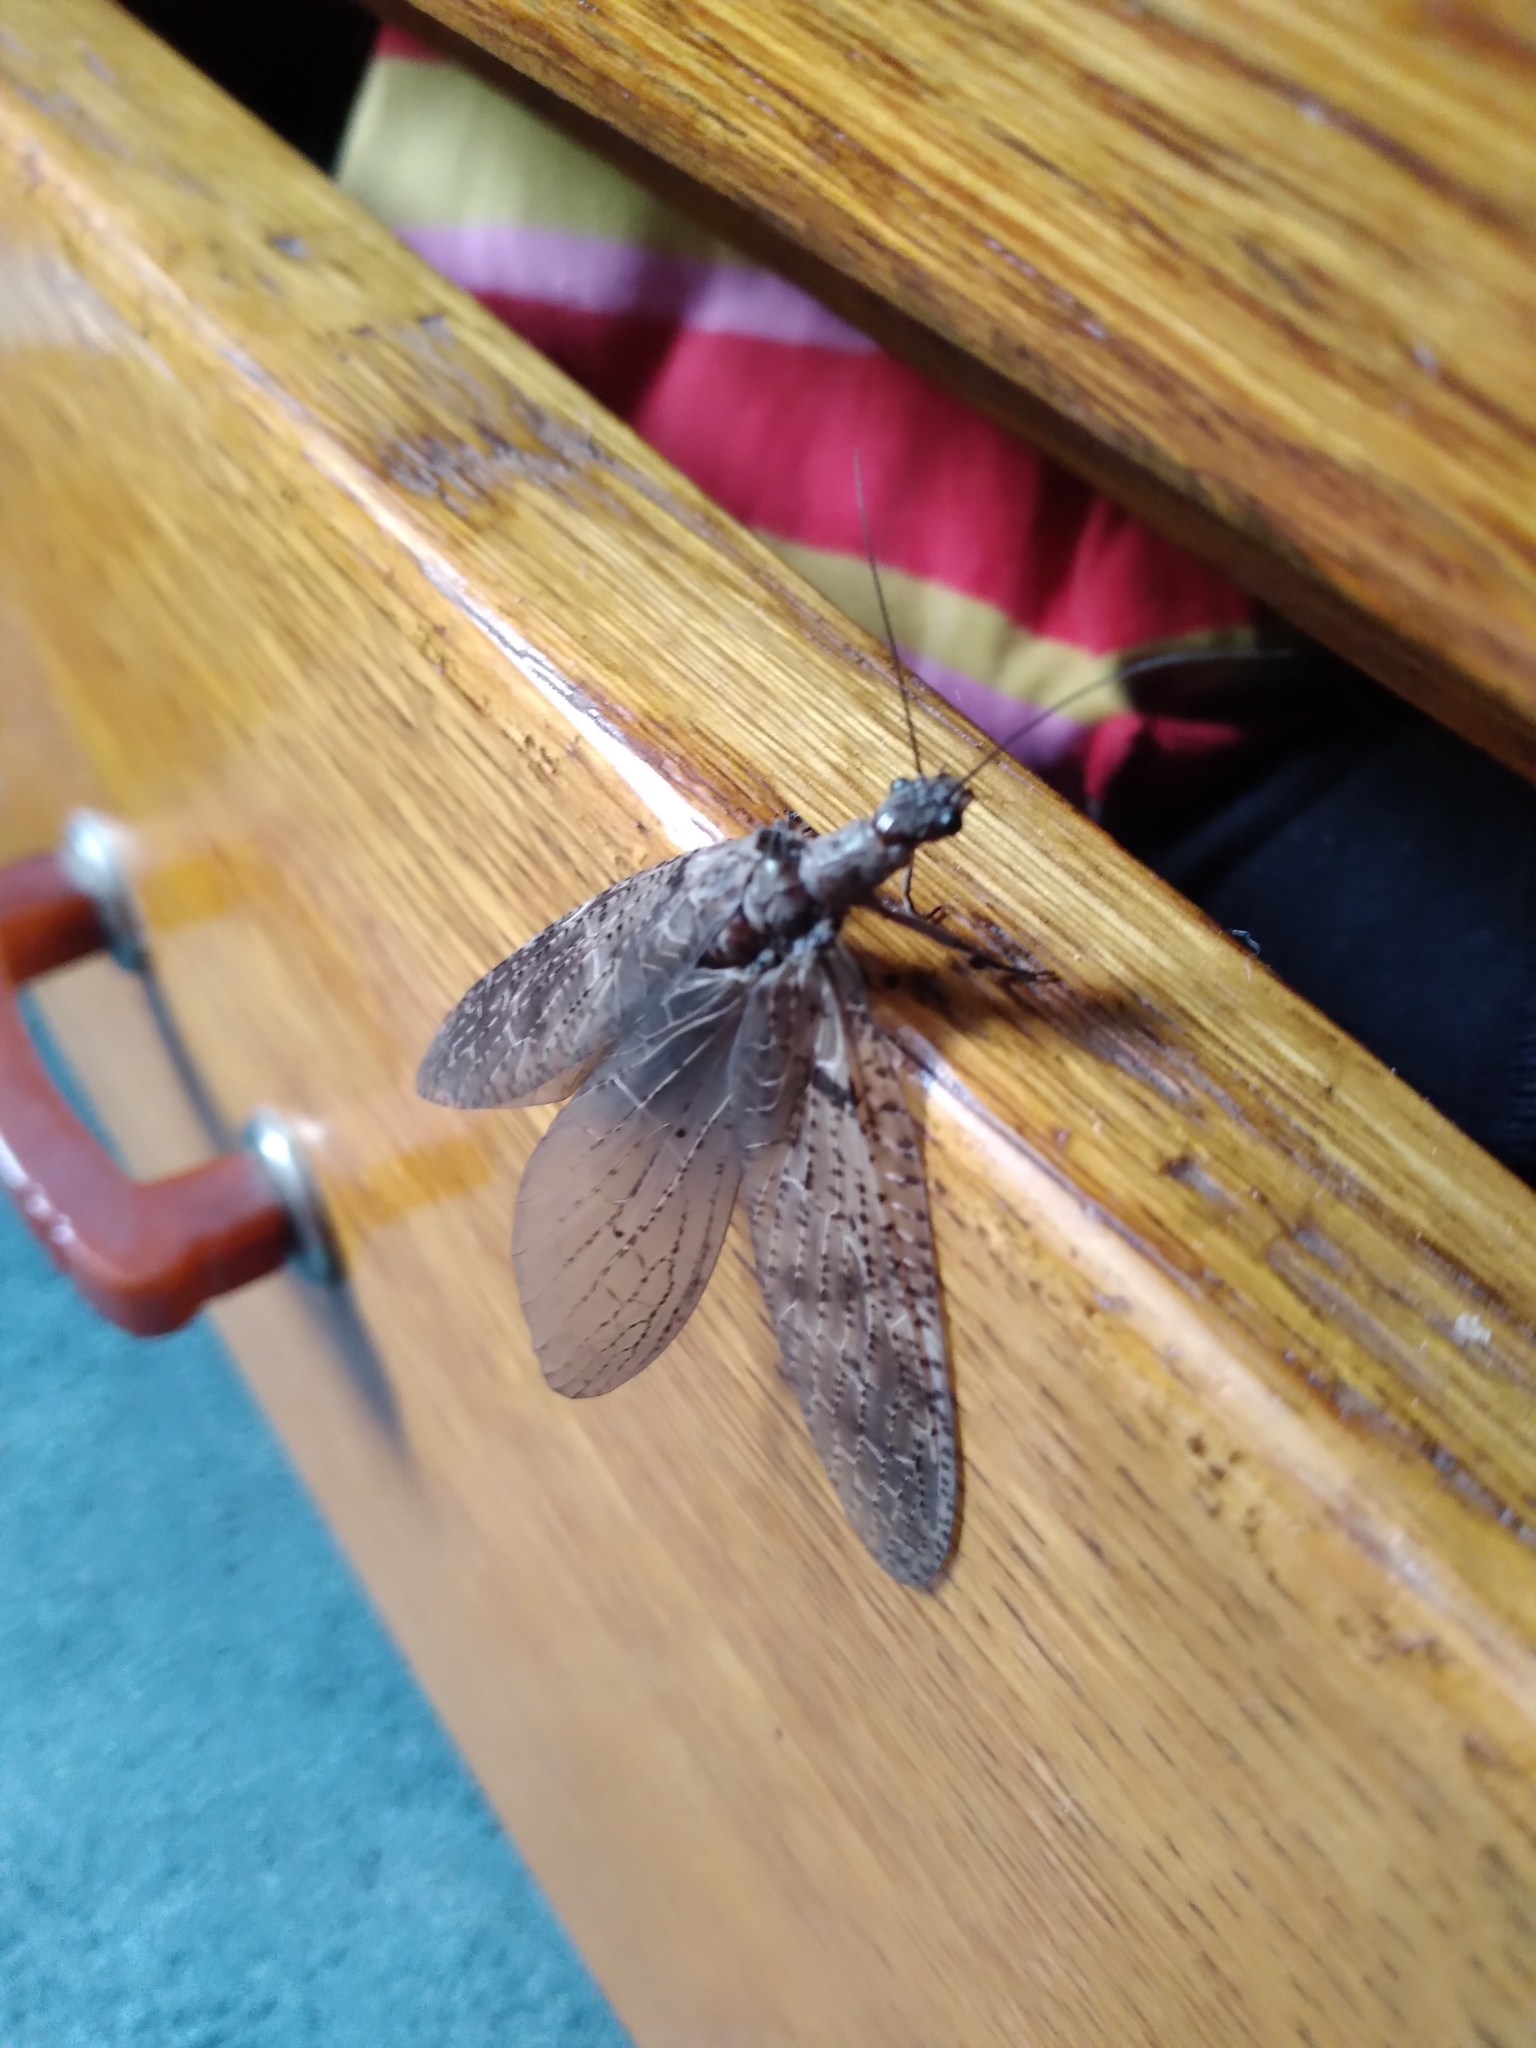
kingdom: Animalia
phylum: Arthropoda
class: Insecta
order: Megaloptera
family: Corydalidae
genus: Archichauliodes
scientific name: Archichauliodes diversus
